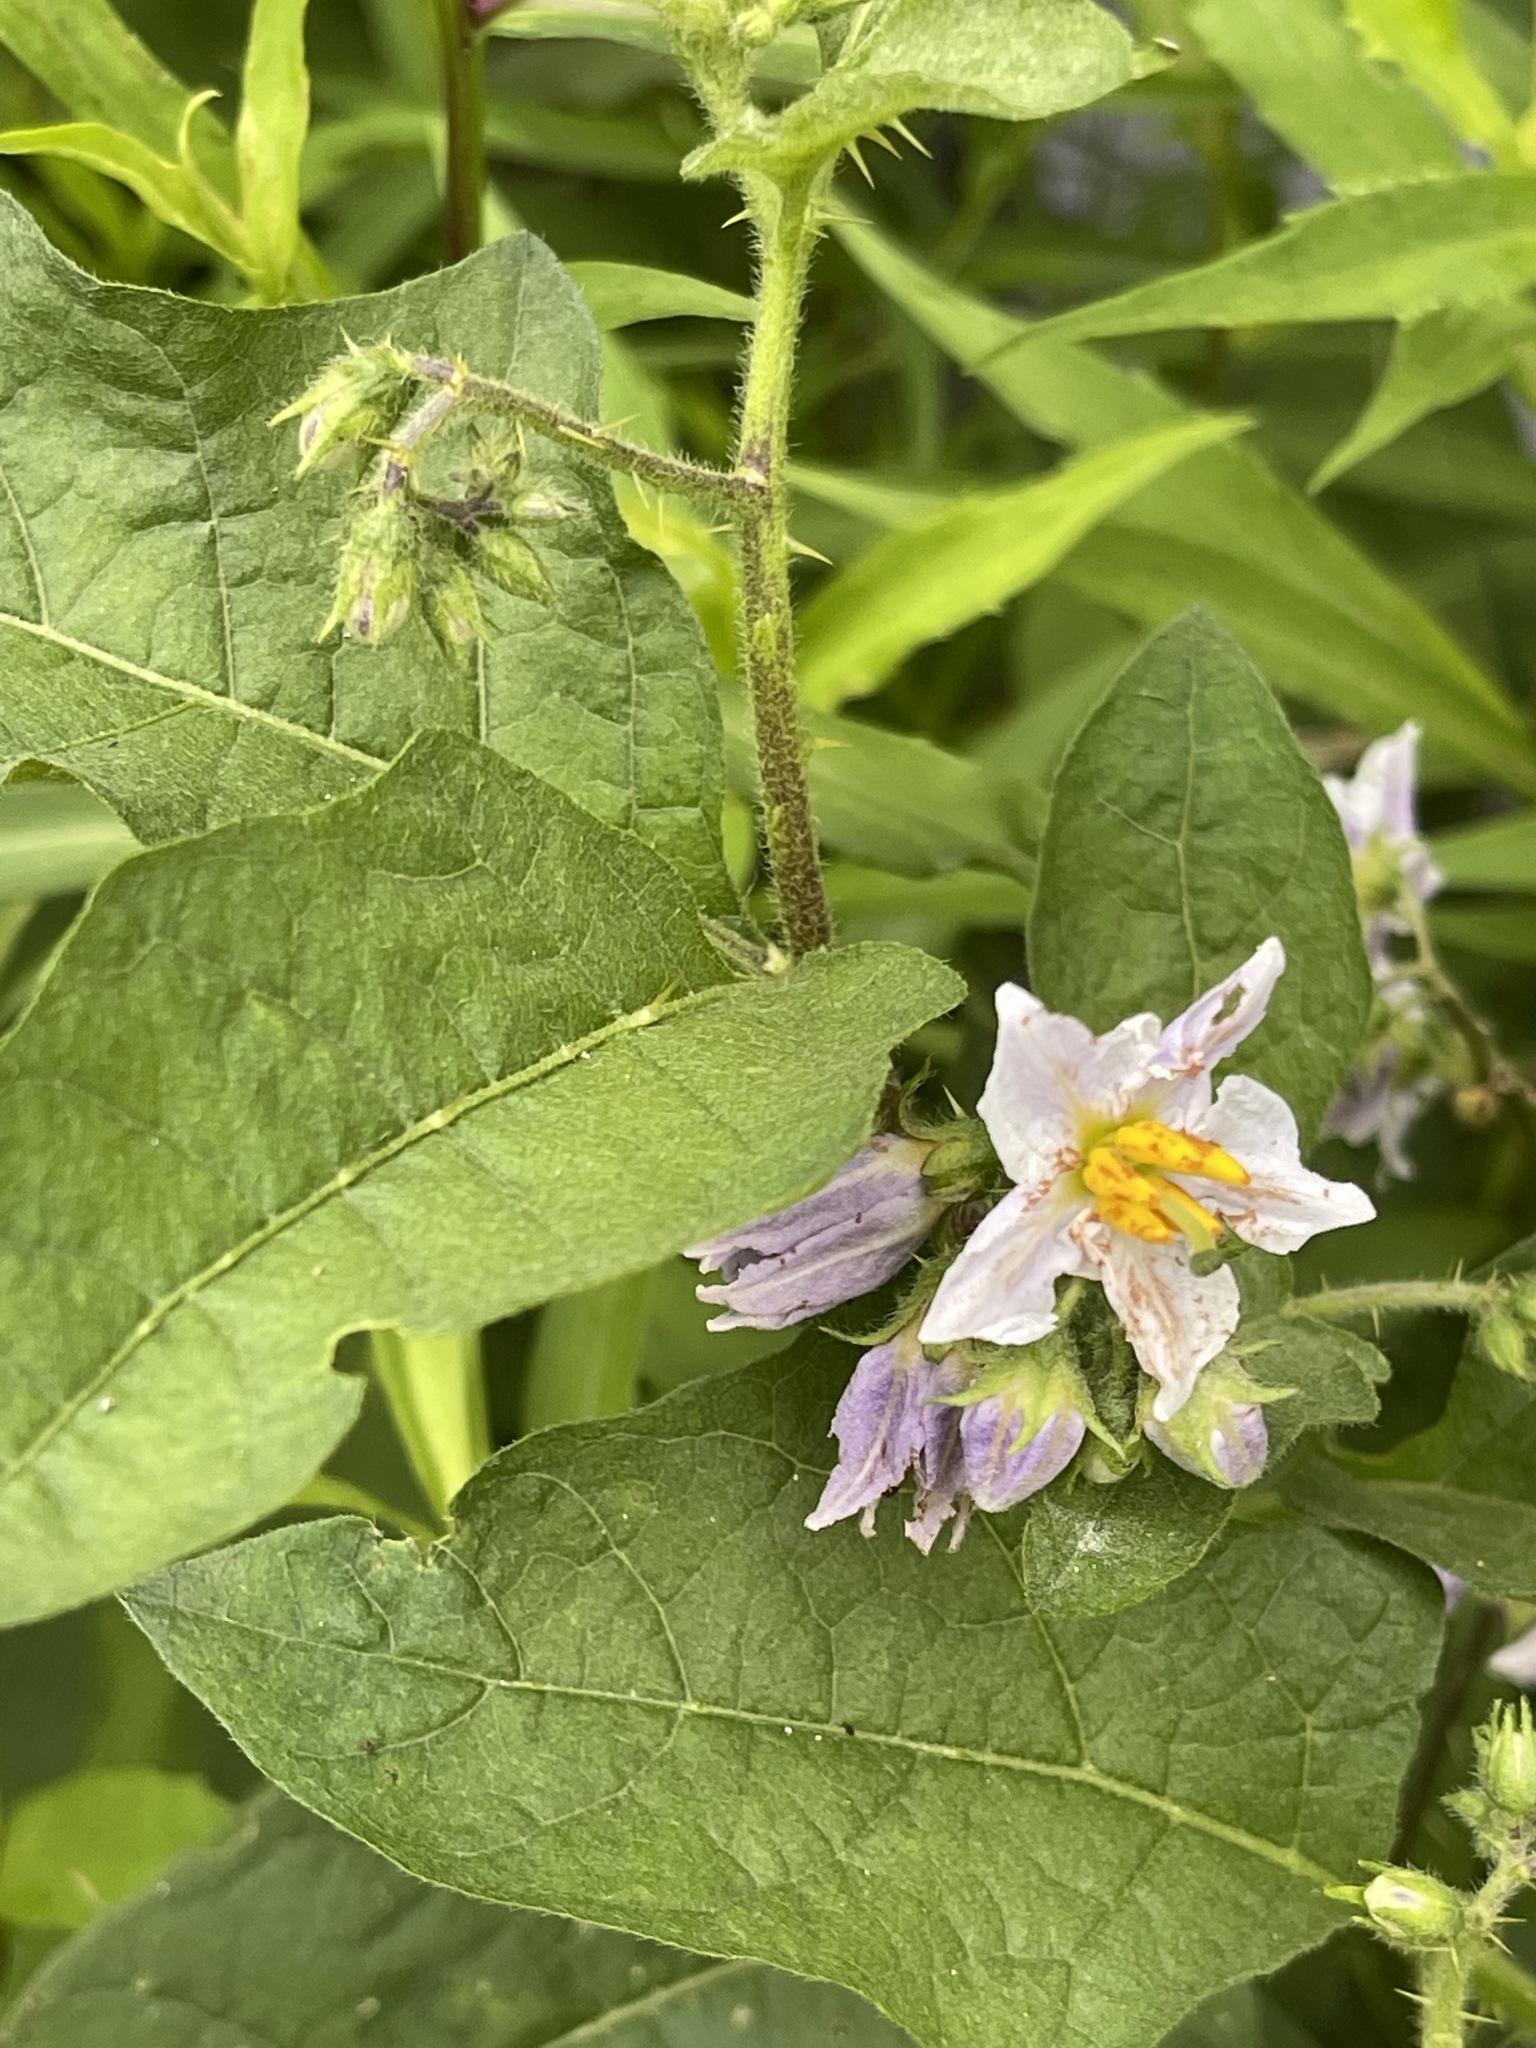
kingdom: Plantae
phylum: Tracheophyta
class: Magnoliopsida
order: Solanales
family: Solanaceae
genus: Solanum
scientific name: Solanum carolinense
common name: Horse-nettle
